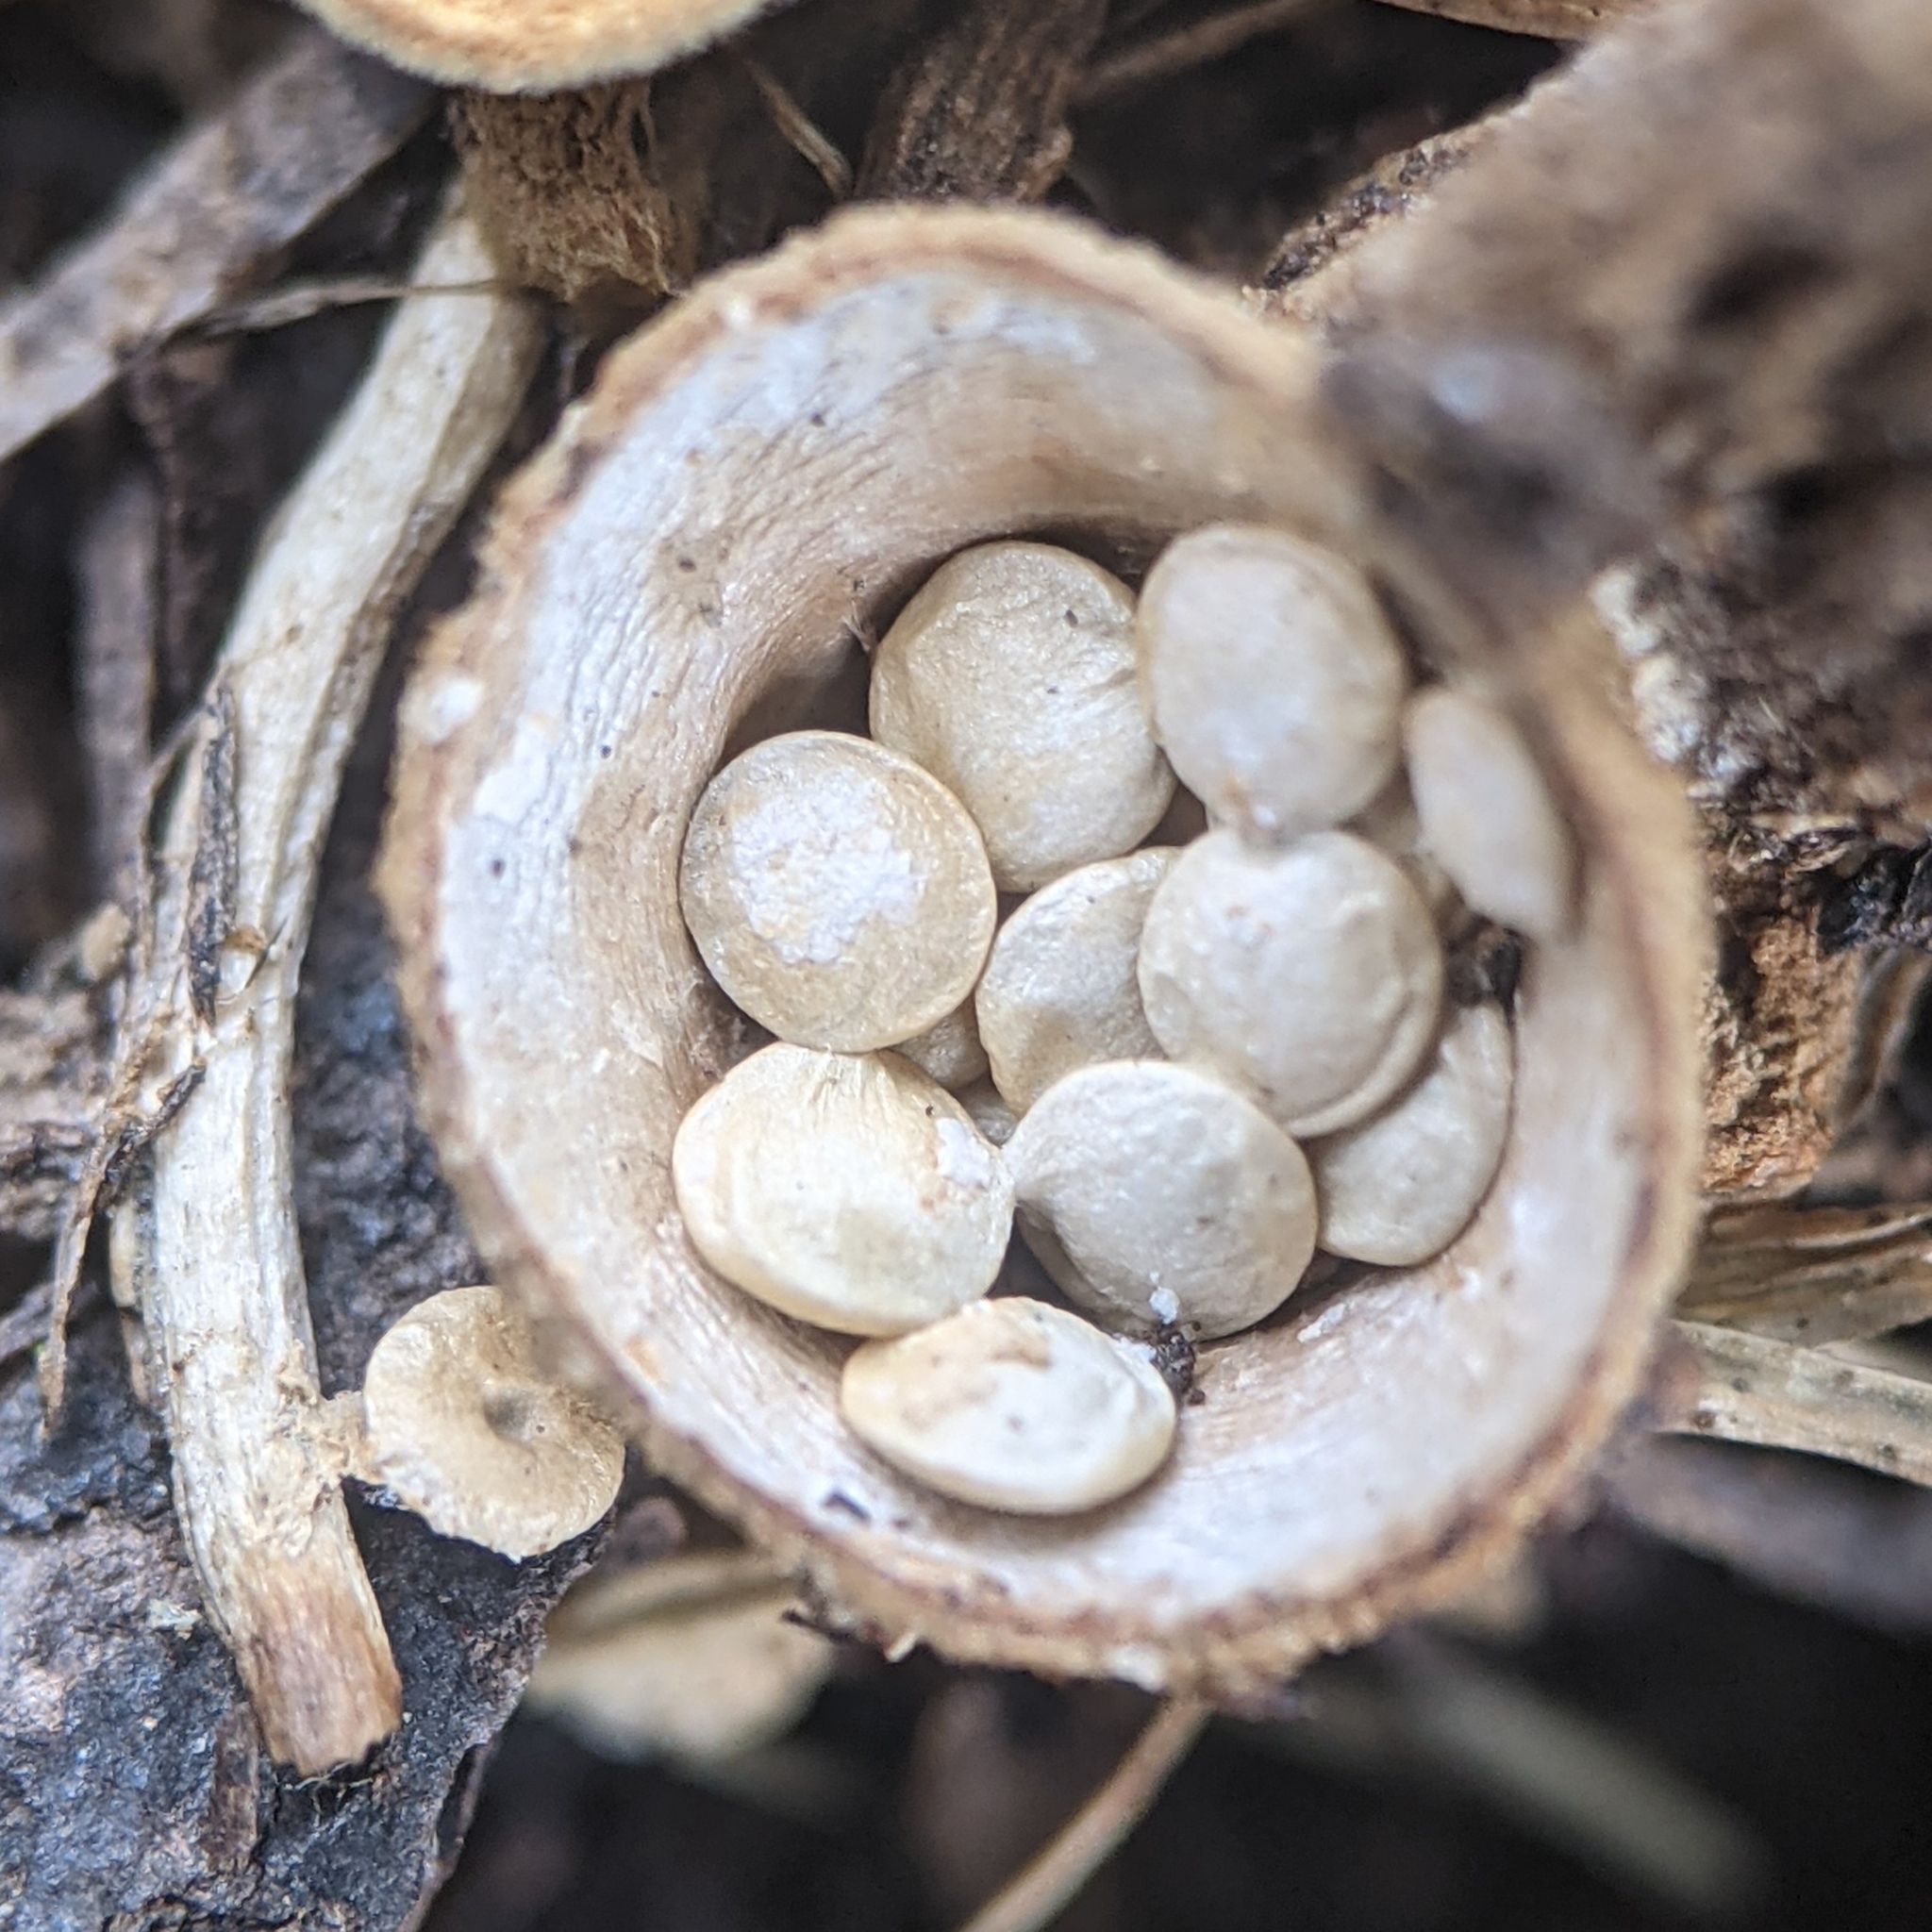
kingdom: Fungi
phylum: Basidiomycota
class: Agaricomycetes
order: Agaricales
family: Nidulariaceae
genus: Crucibulum
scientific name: Crucibulum laeve
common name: Common bird's nest
